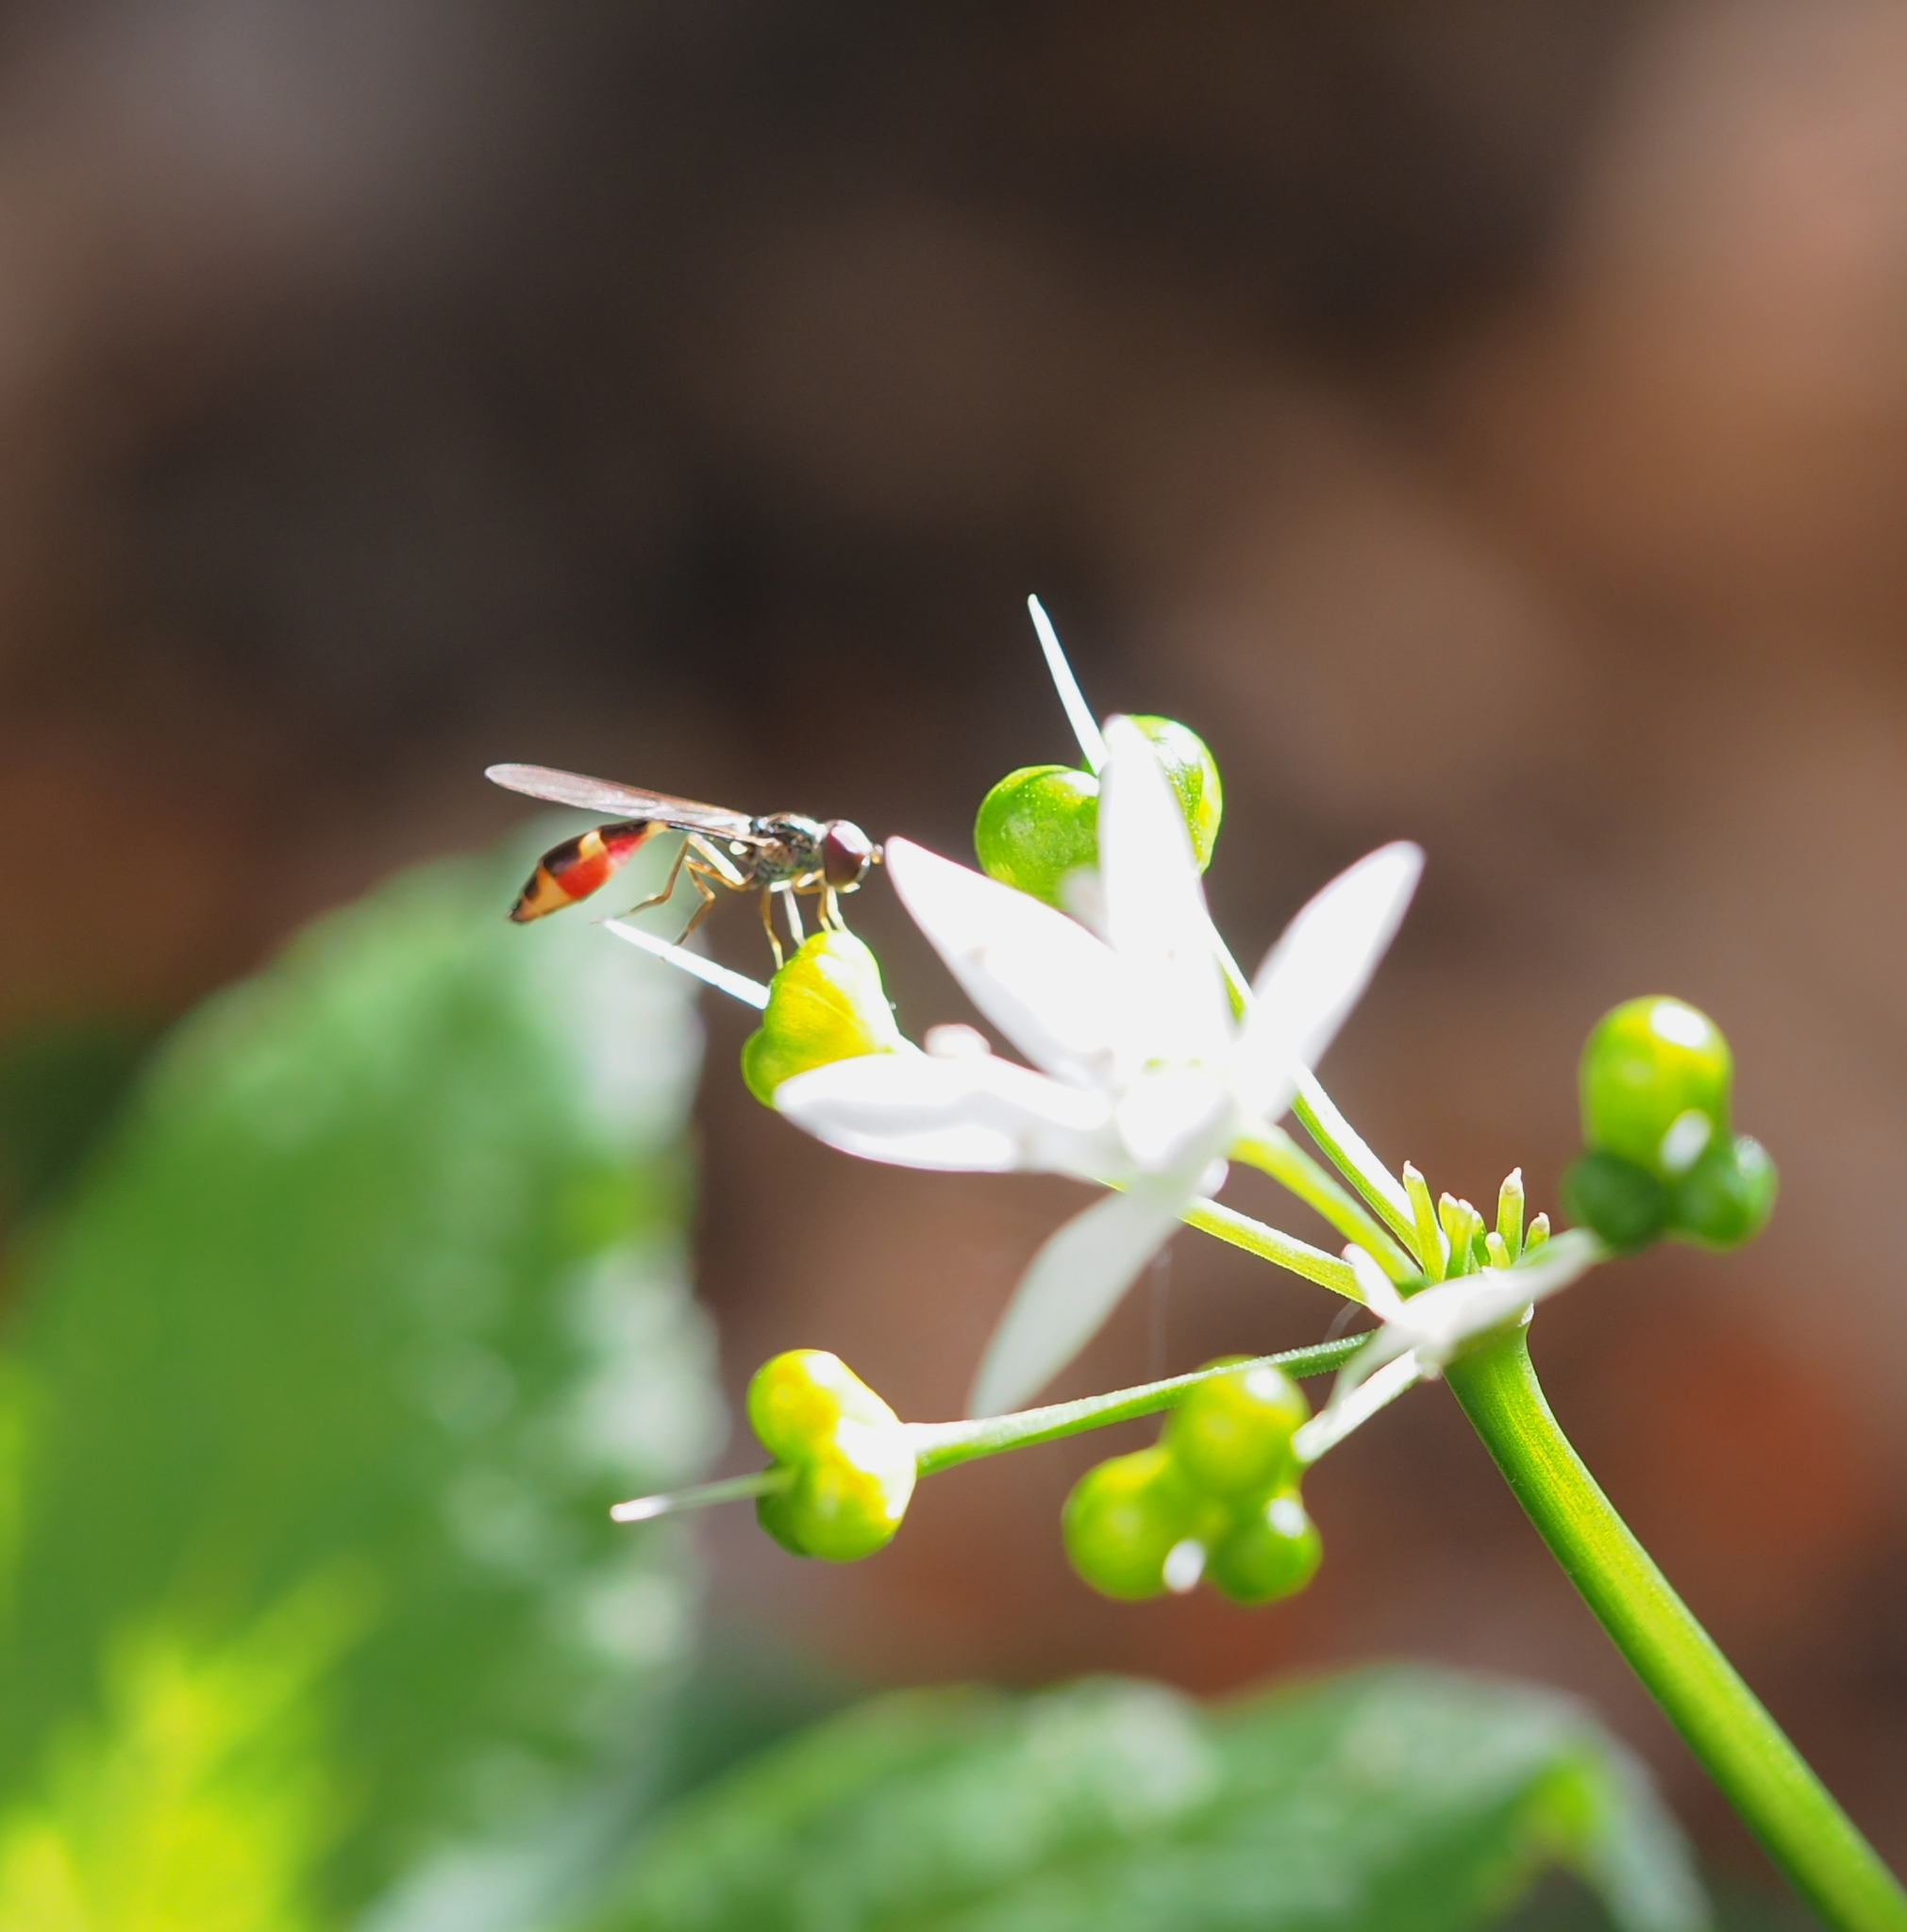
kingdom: Animalia
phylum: Arthropoda
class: Insecta
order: Diptera
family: Syrphidae
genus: Baccha
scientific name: Baccha elongata
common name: Common dainty
